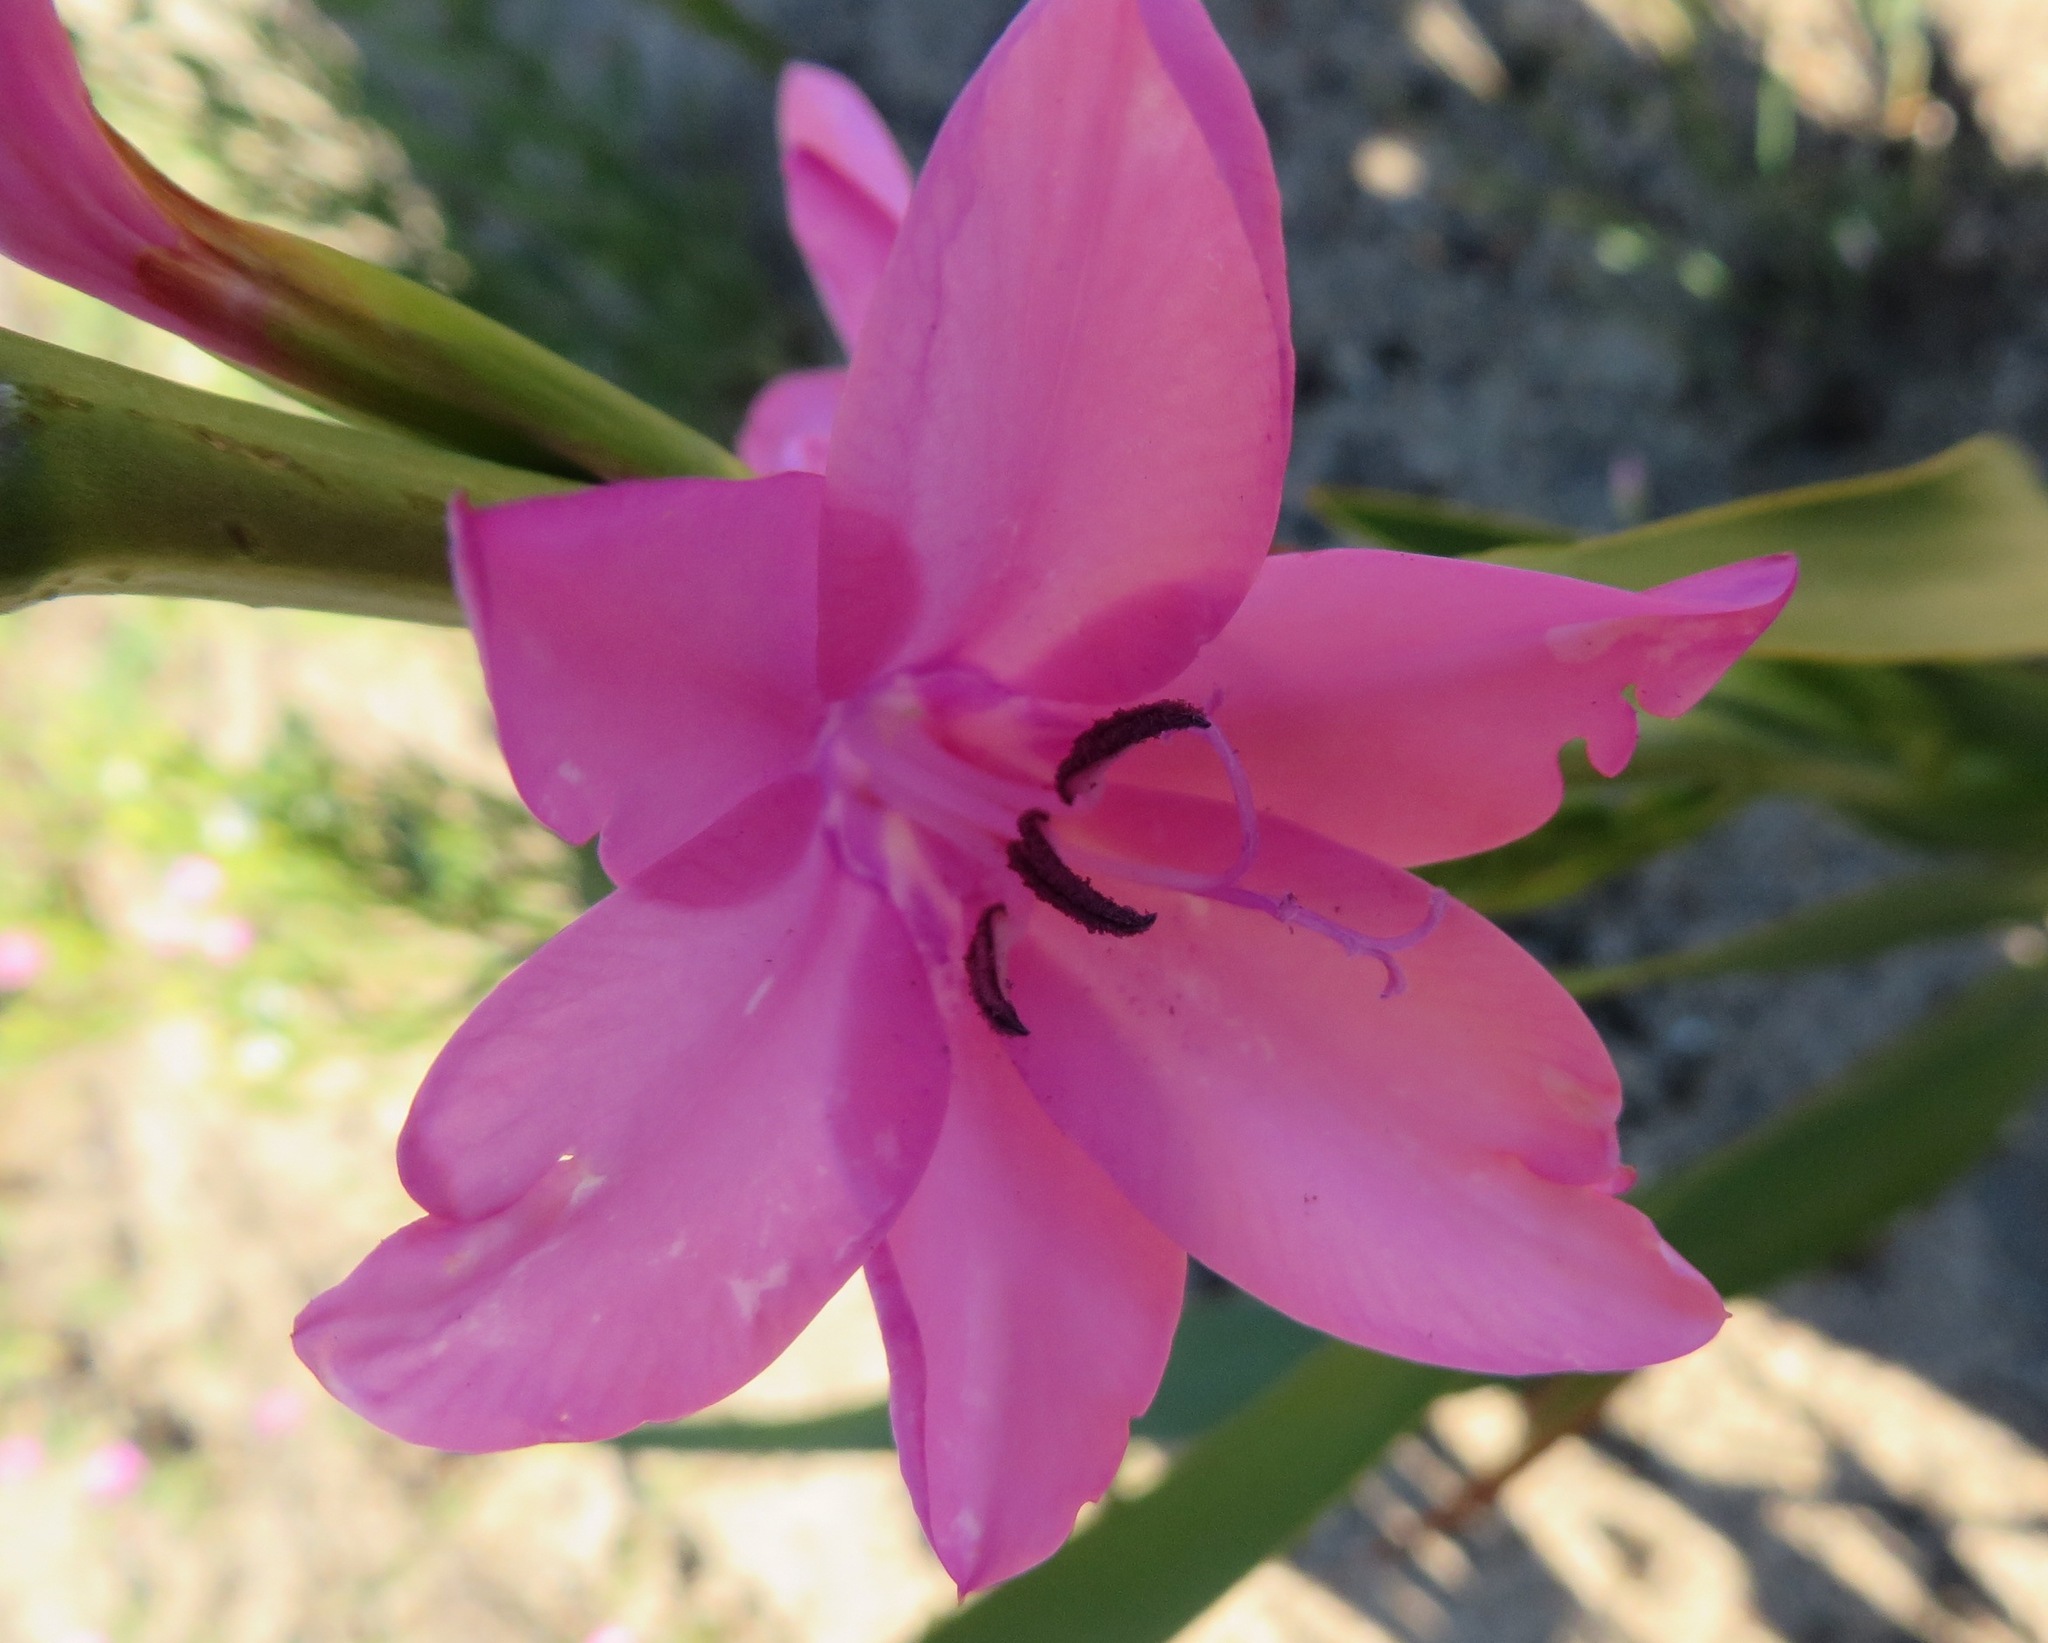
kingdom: Plantae
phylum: Tracheophyta
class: Liliopsida
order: Asparagales
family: Iridaceae
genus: Watsonia
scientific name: Watsonia borbonica
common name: Bugle-lily
